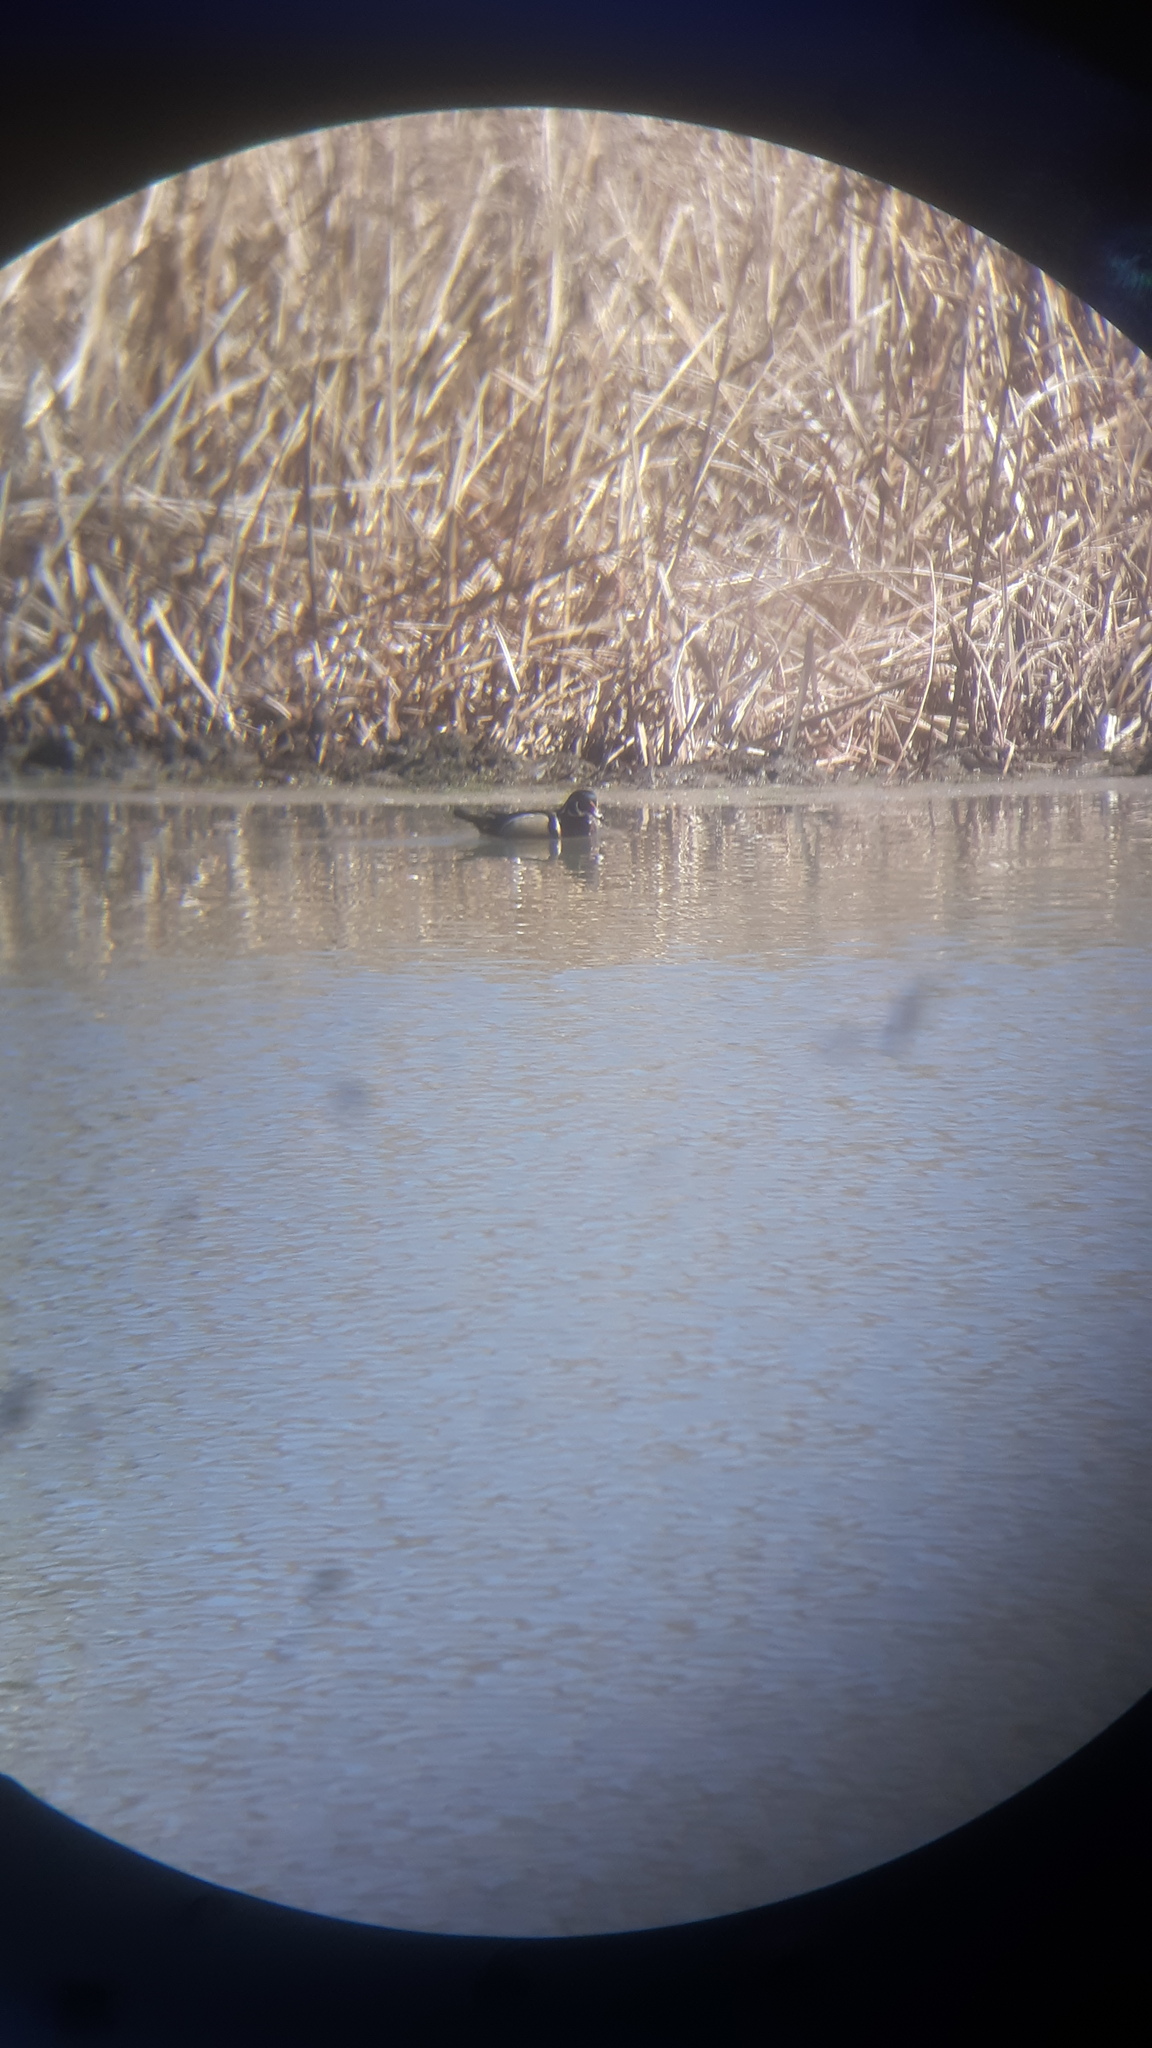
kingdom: Animalia
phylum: Chordata
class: Aves
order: Anseriformes
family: Anatidae
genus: Aix
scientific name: Aix sponsa
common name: Wood duck
